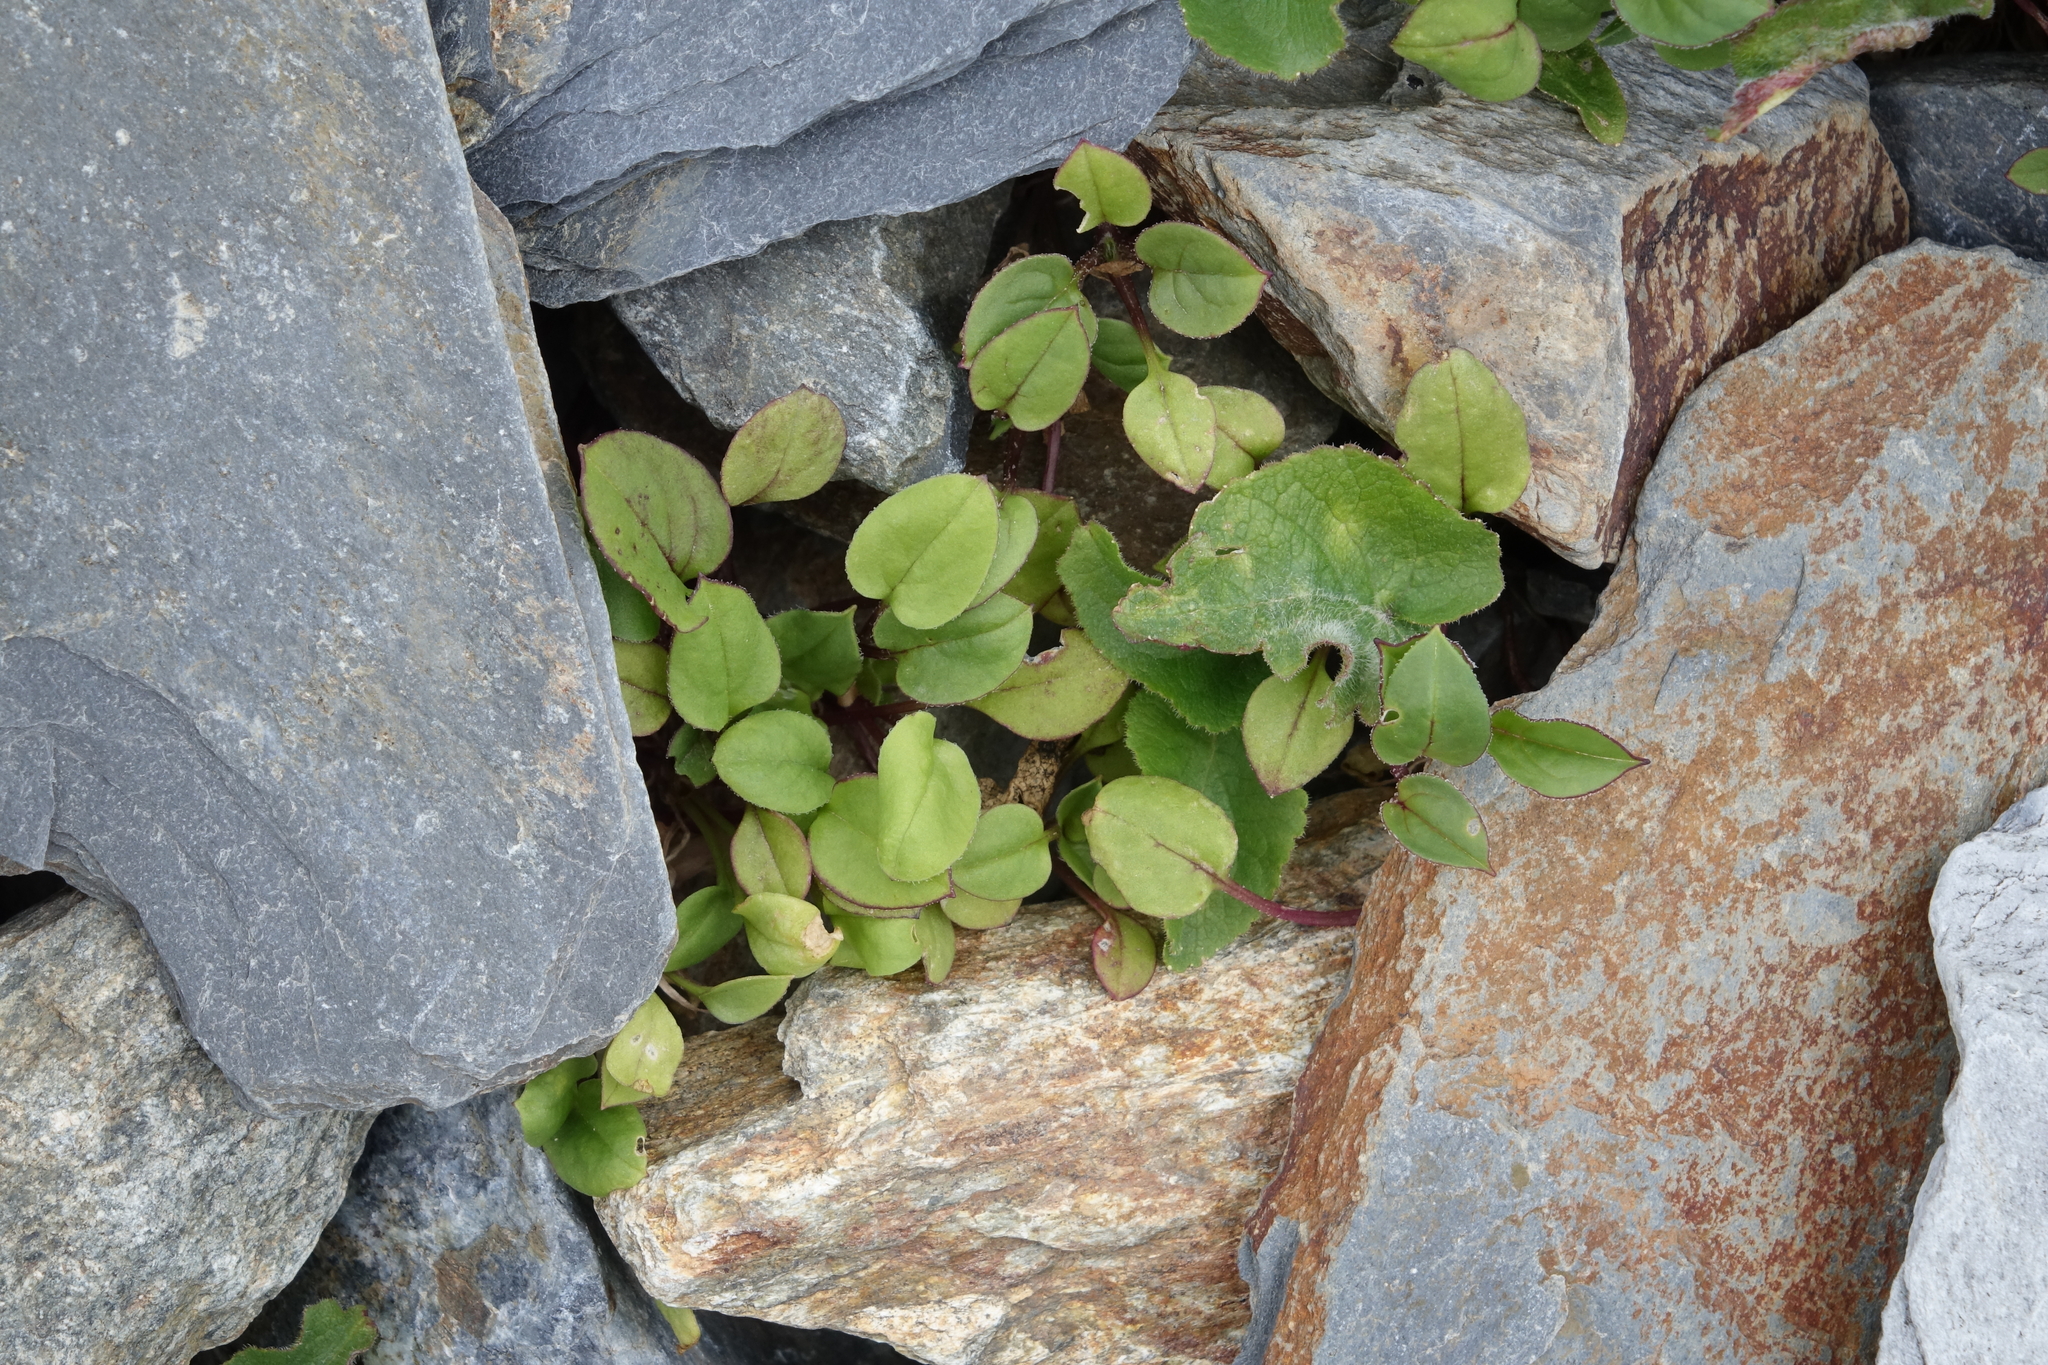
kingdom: Plantae
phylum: Tracheophyta
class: Magnoliopsida
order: Caryophyllales
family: Caryophyllaceae
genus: Silene
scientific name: Silene lacera
